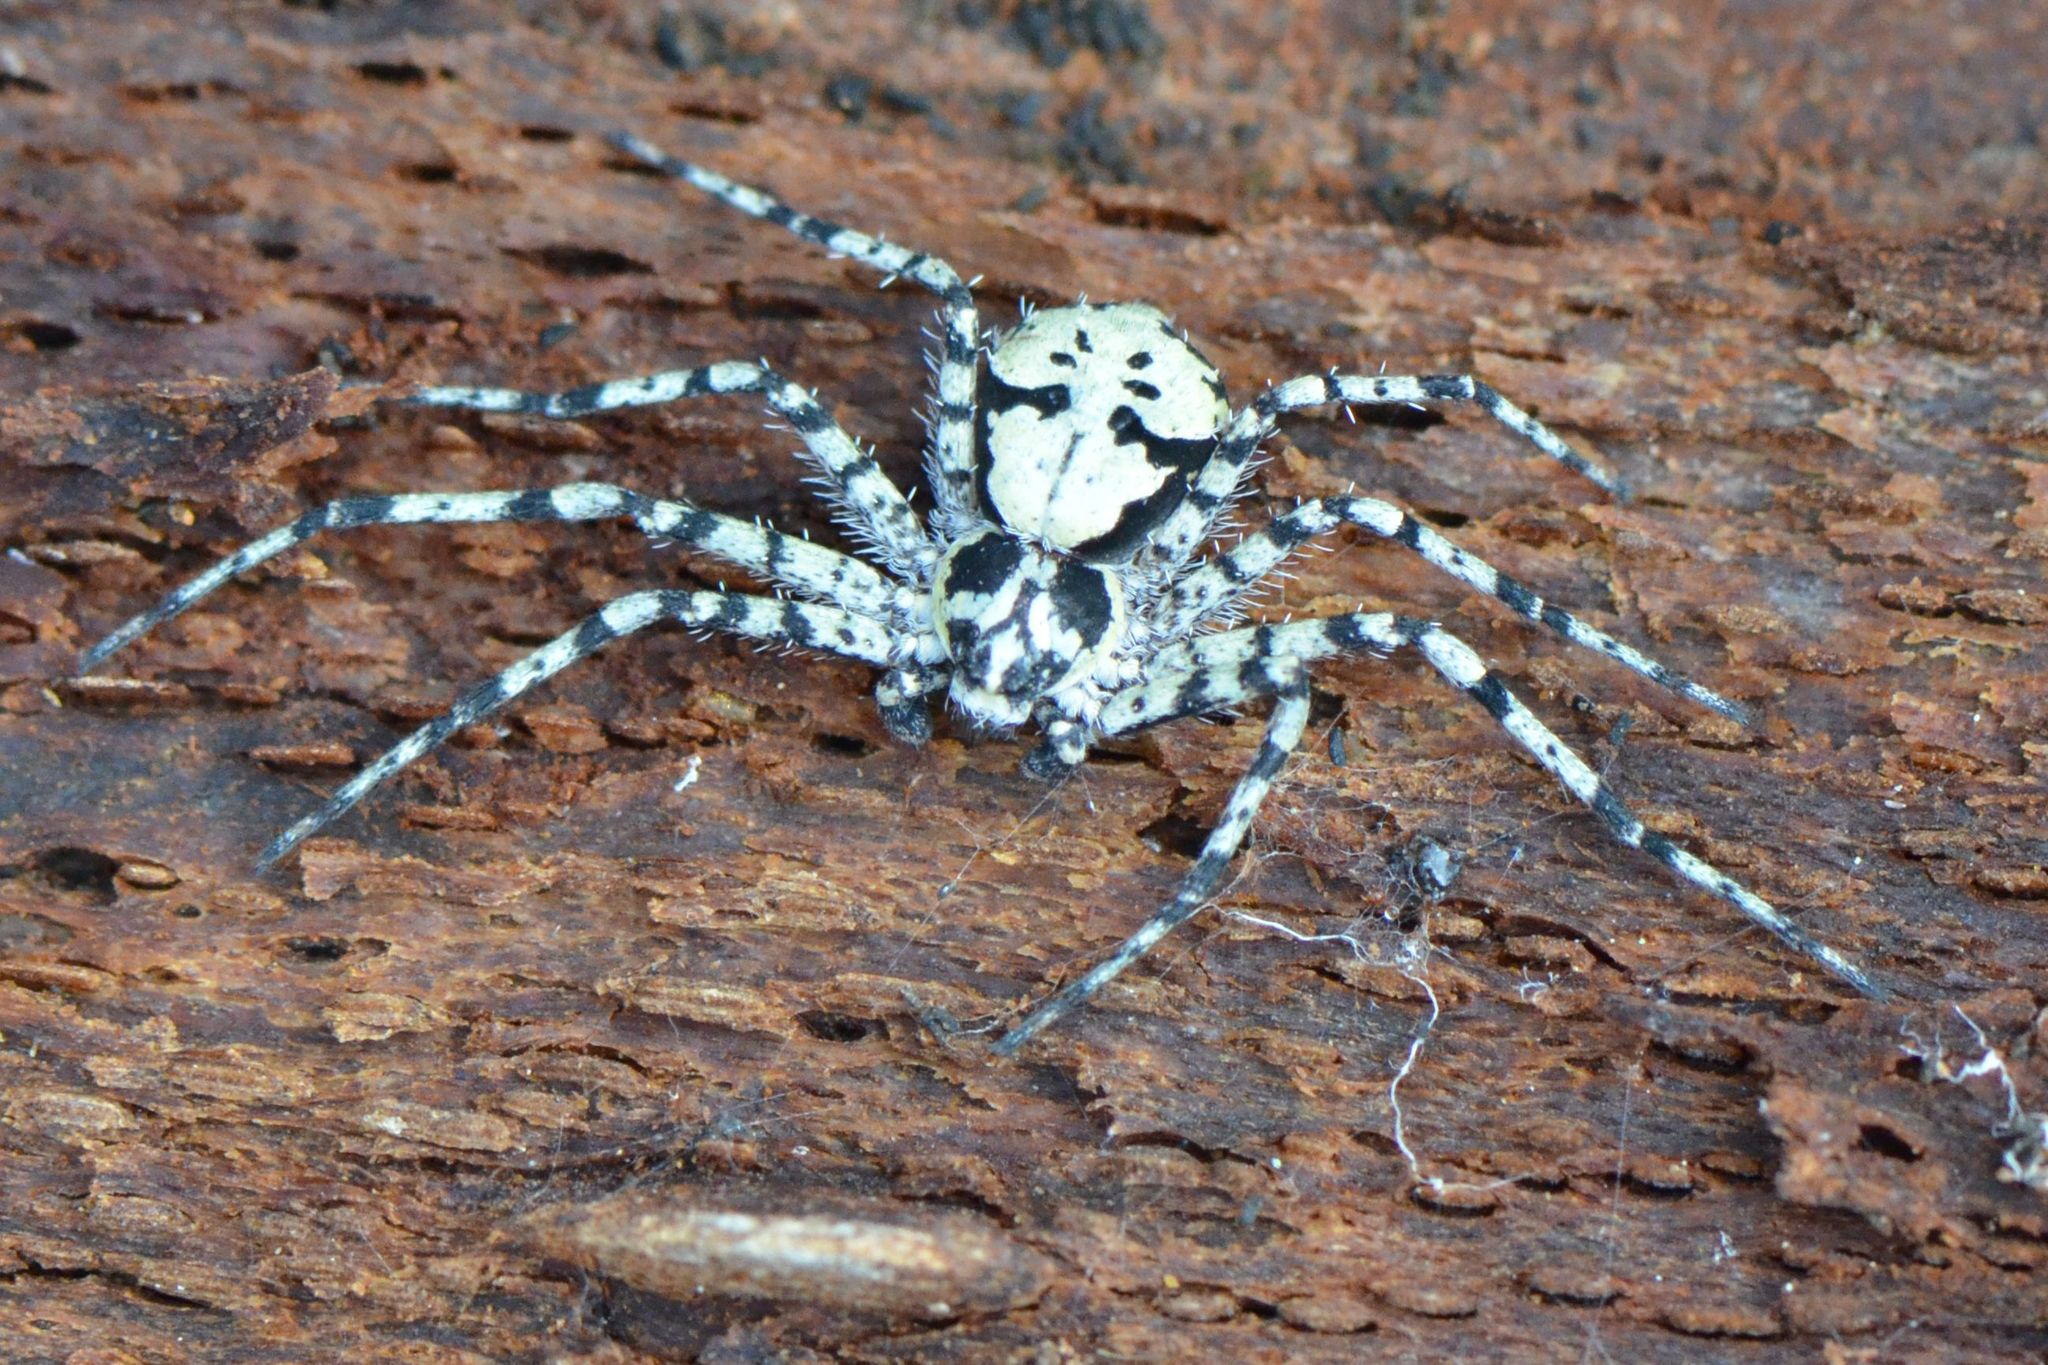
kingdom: Animalia
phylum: Arthropoda
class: Arachnida
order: Araneae
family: Philodromidae
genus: Philodromus
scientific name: Philodromus margaritatus
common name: Lichen running-spider
